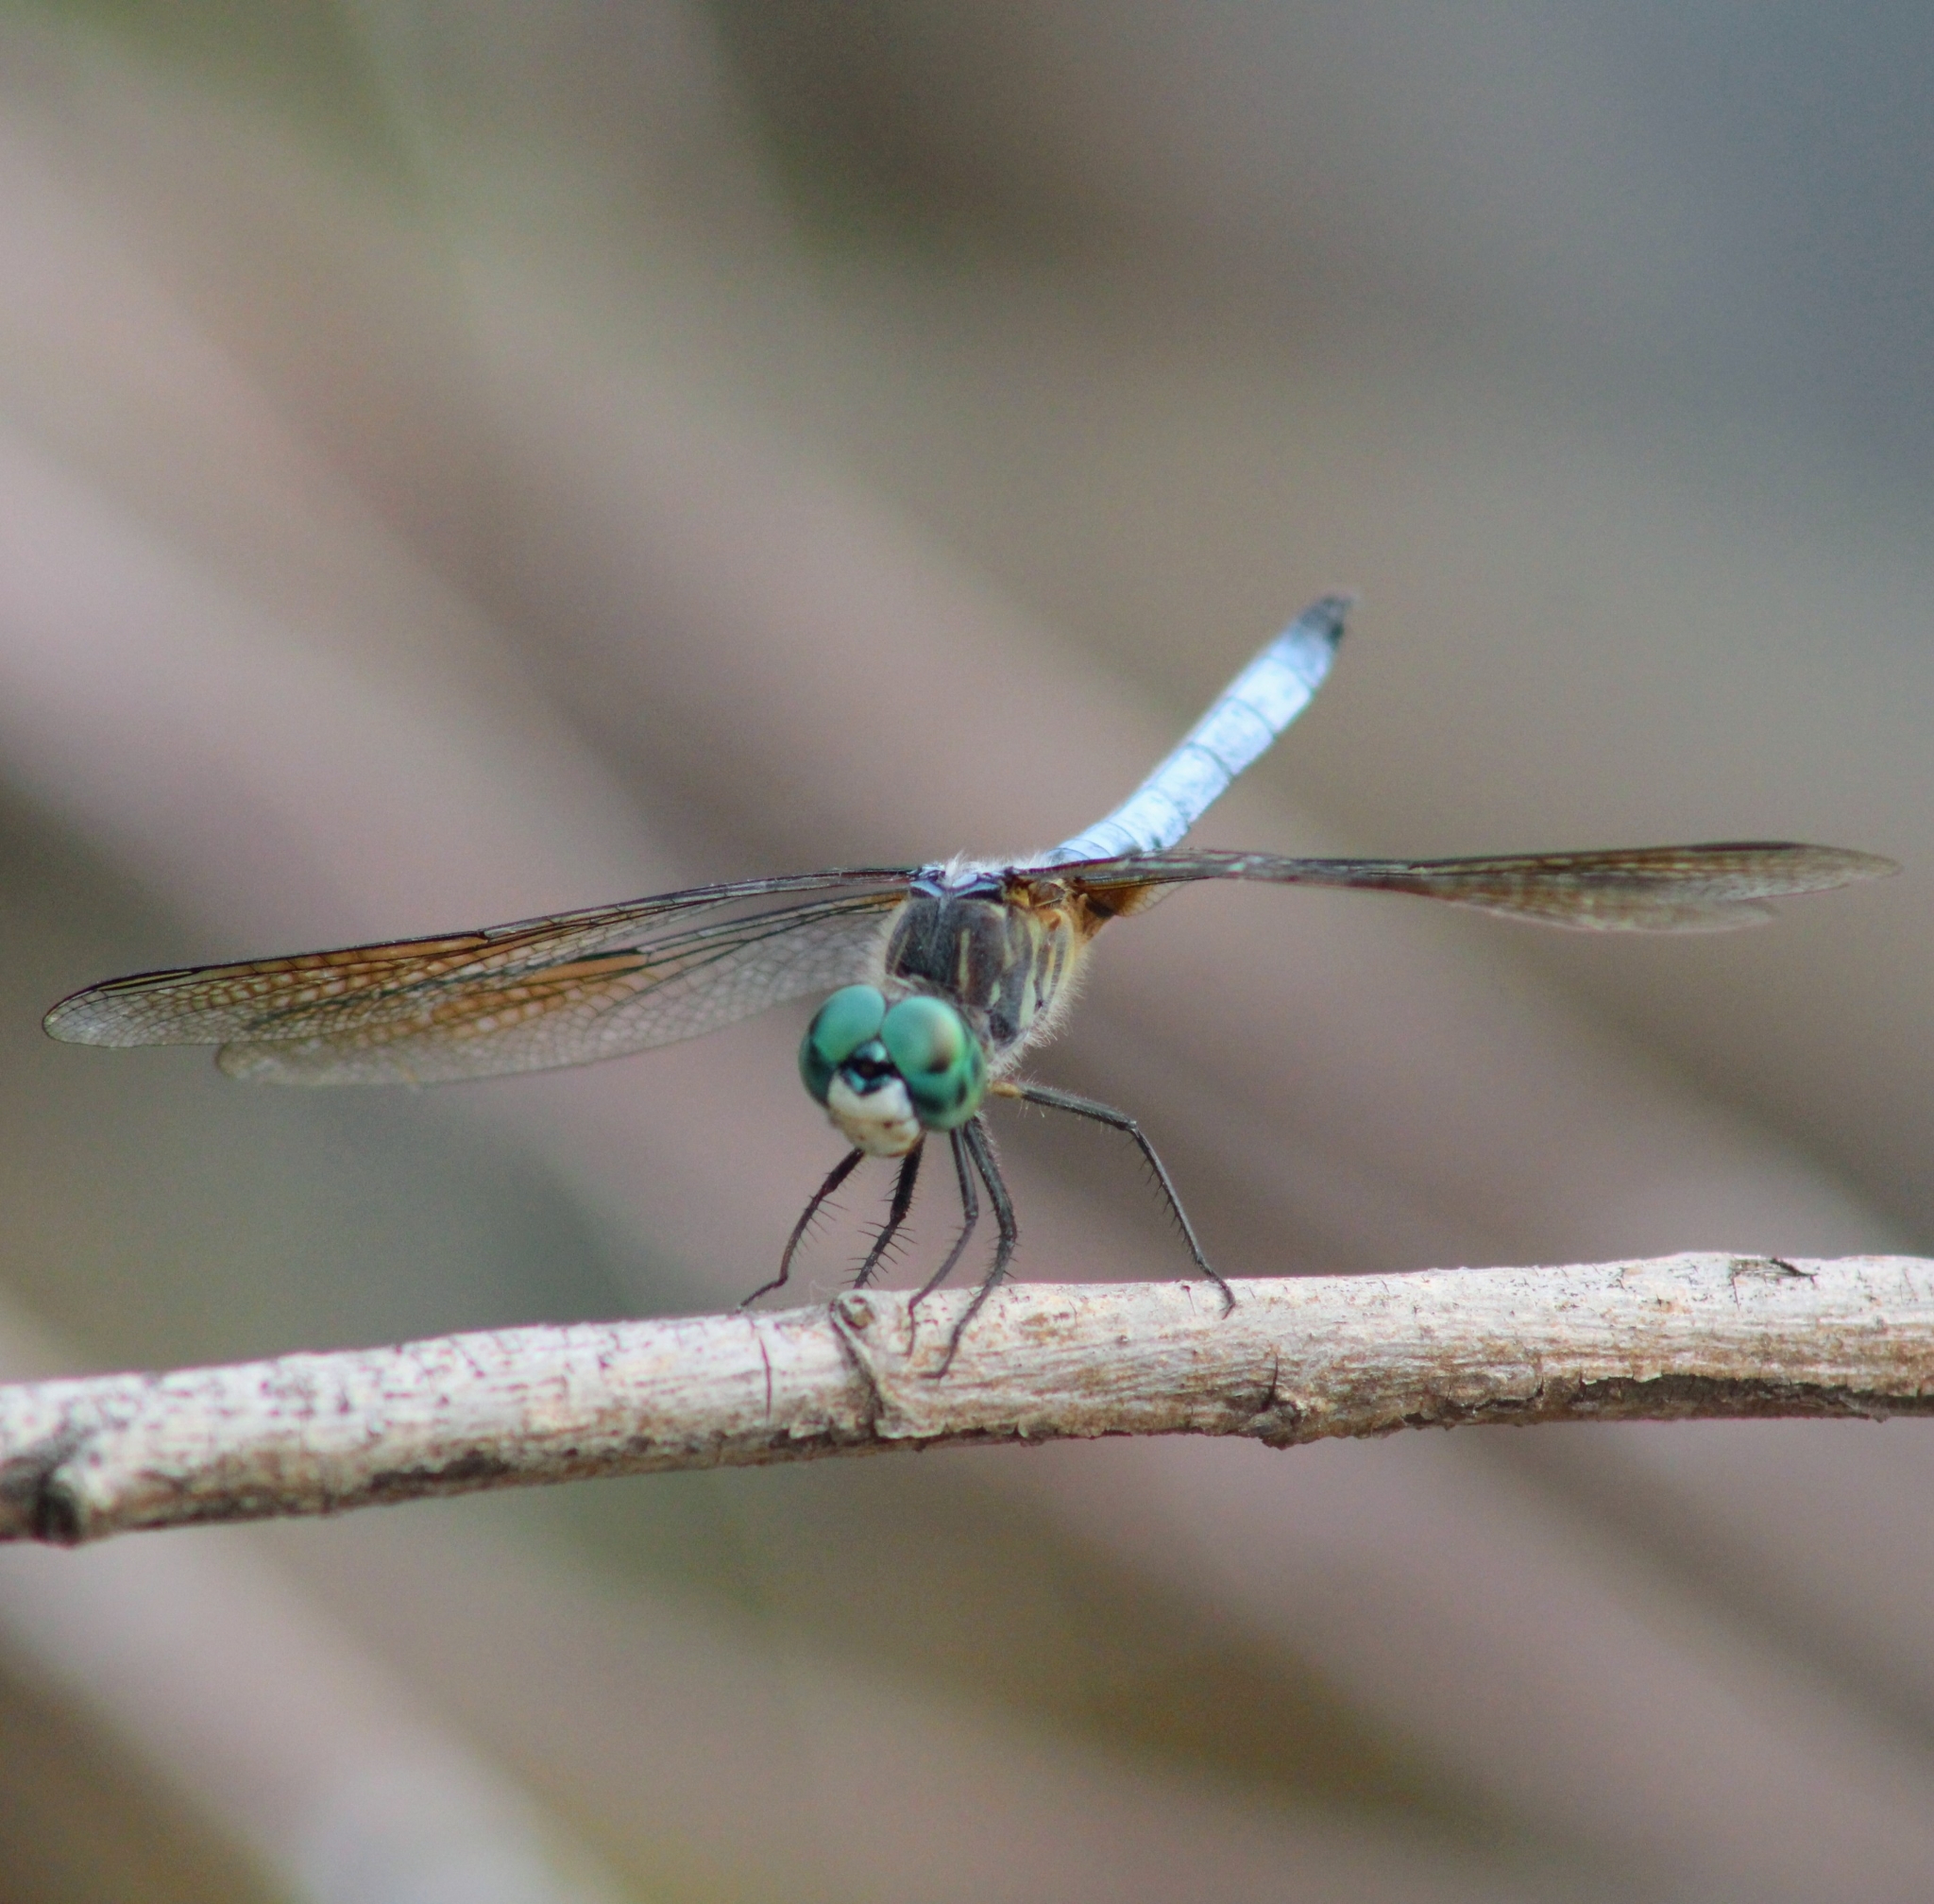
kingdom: Animalia
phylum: Arthropoda
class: Insecta
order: Odonata
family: Libellulidae
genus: Pachydiplax
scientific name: Pachydiplax longipennis
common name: Blue dasher
